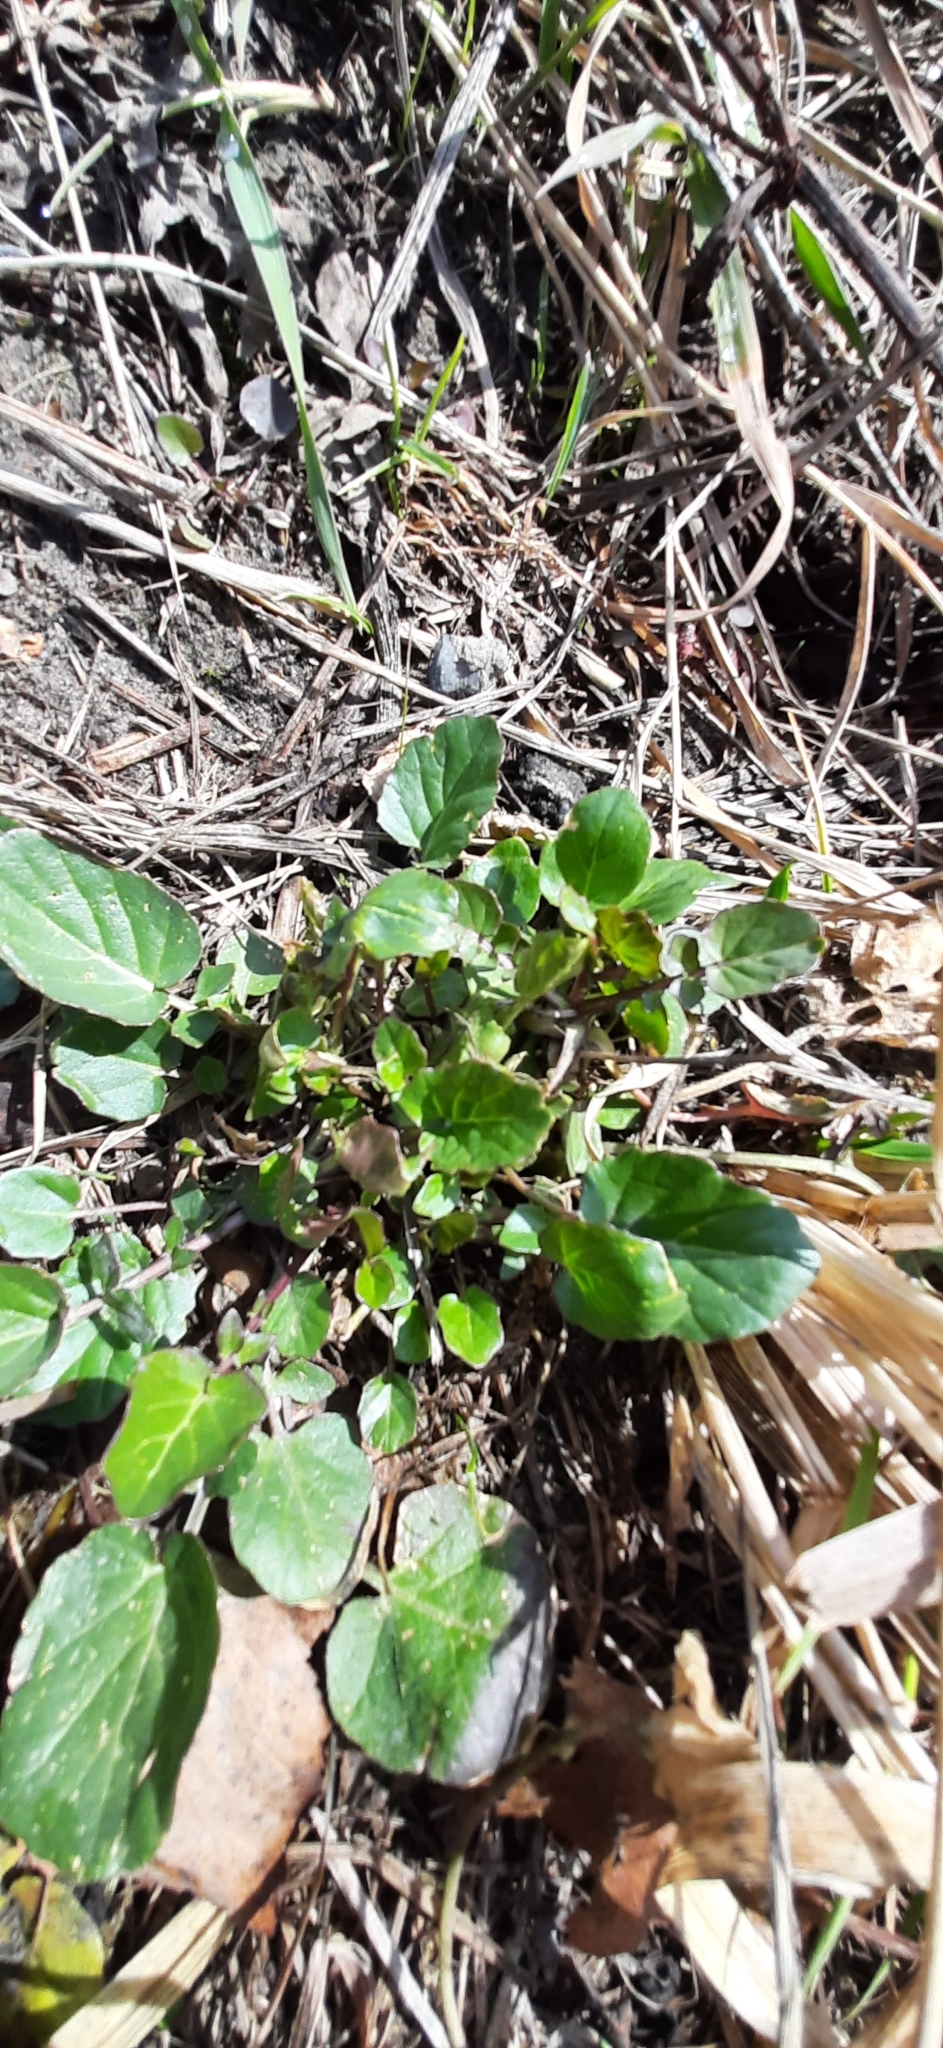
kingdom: Plantae
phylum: Tracheophyta
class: Magnoliopsida
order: Brassicales
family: Brassicaceae
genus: Barbarea
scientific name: Barbarea vulgaris
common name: Cressy-greens
